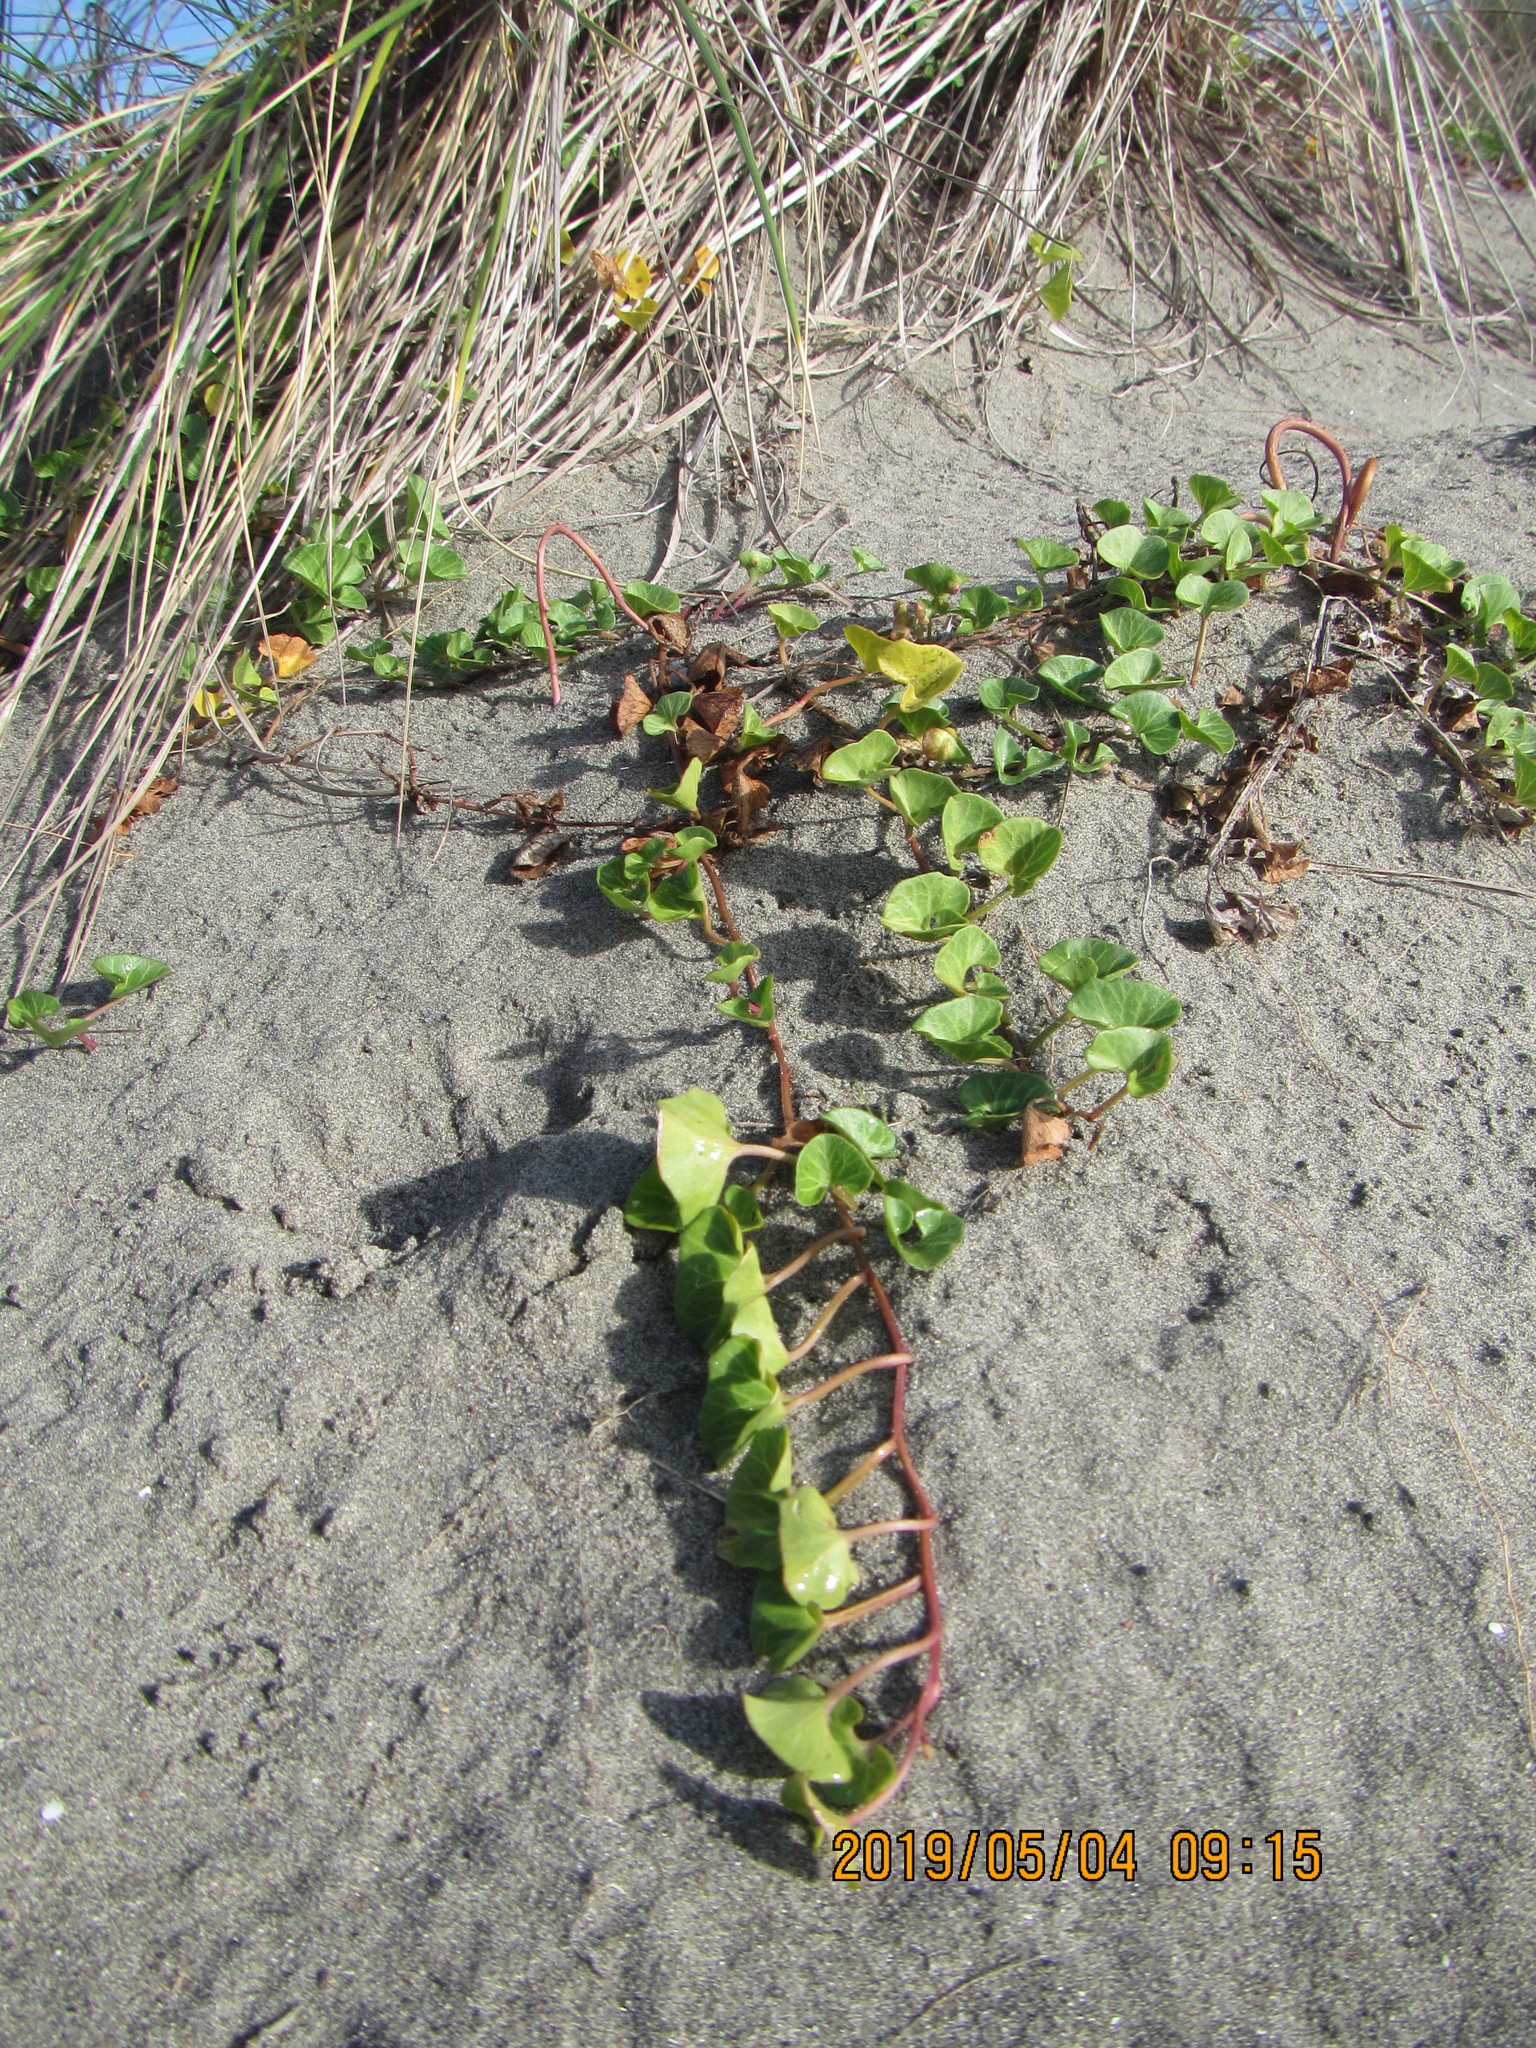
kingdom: Plantae
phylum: Tracheophyta
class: Magnoliopsida
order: Solanales
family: Convolvulaceae
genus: Calystegia
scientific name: Calystegia soldanella
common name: Sea bindweed
